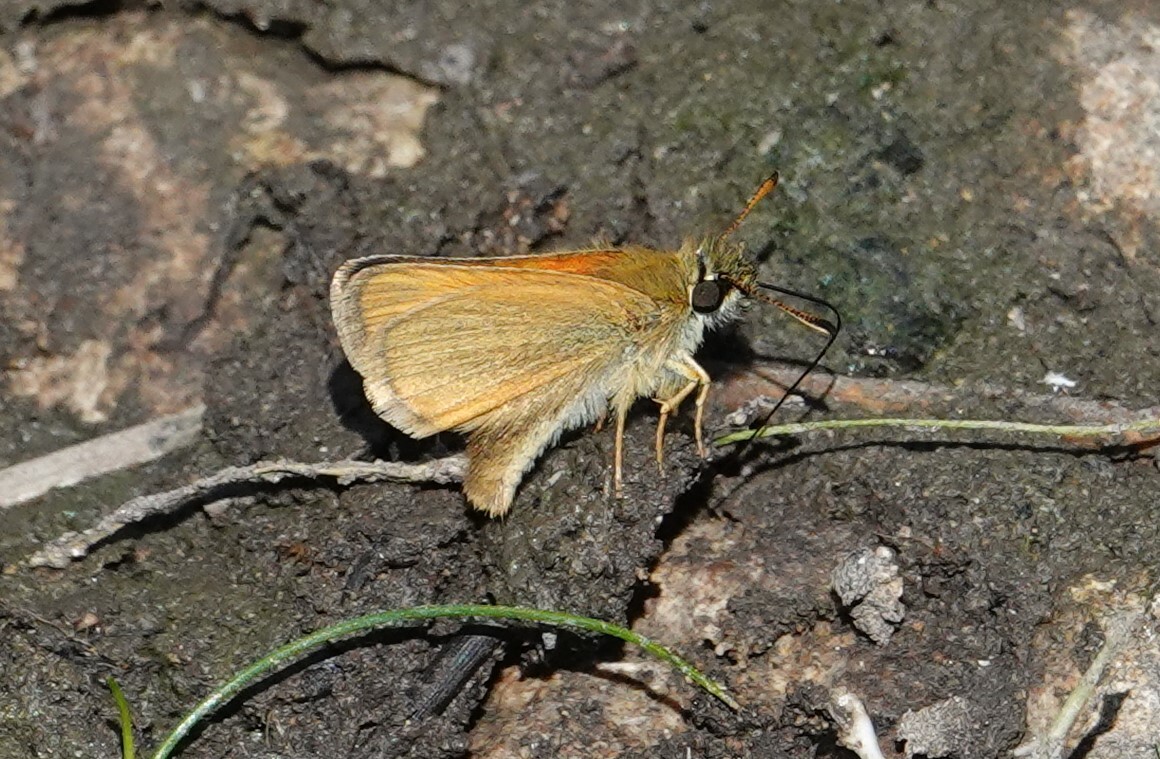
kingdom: Animalia
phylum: Arthropoda
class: Insecta
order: Lepidoptera
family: Hesperiidae
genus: Thymelicus
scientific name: Thymelicus lineola
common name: Essex skipper
